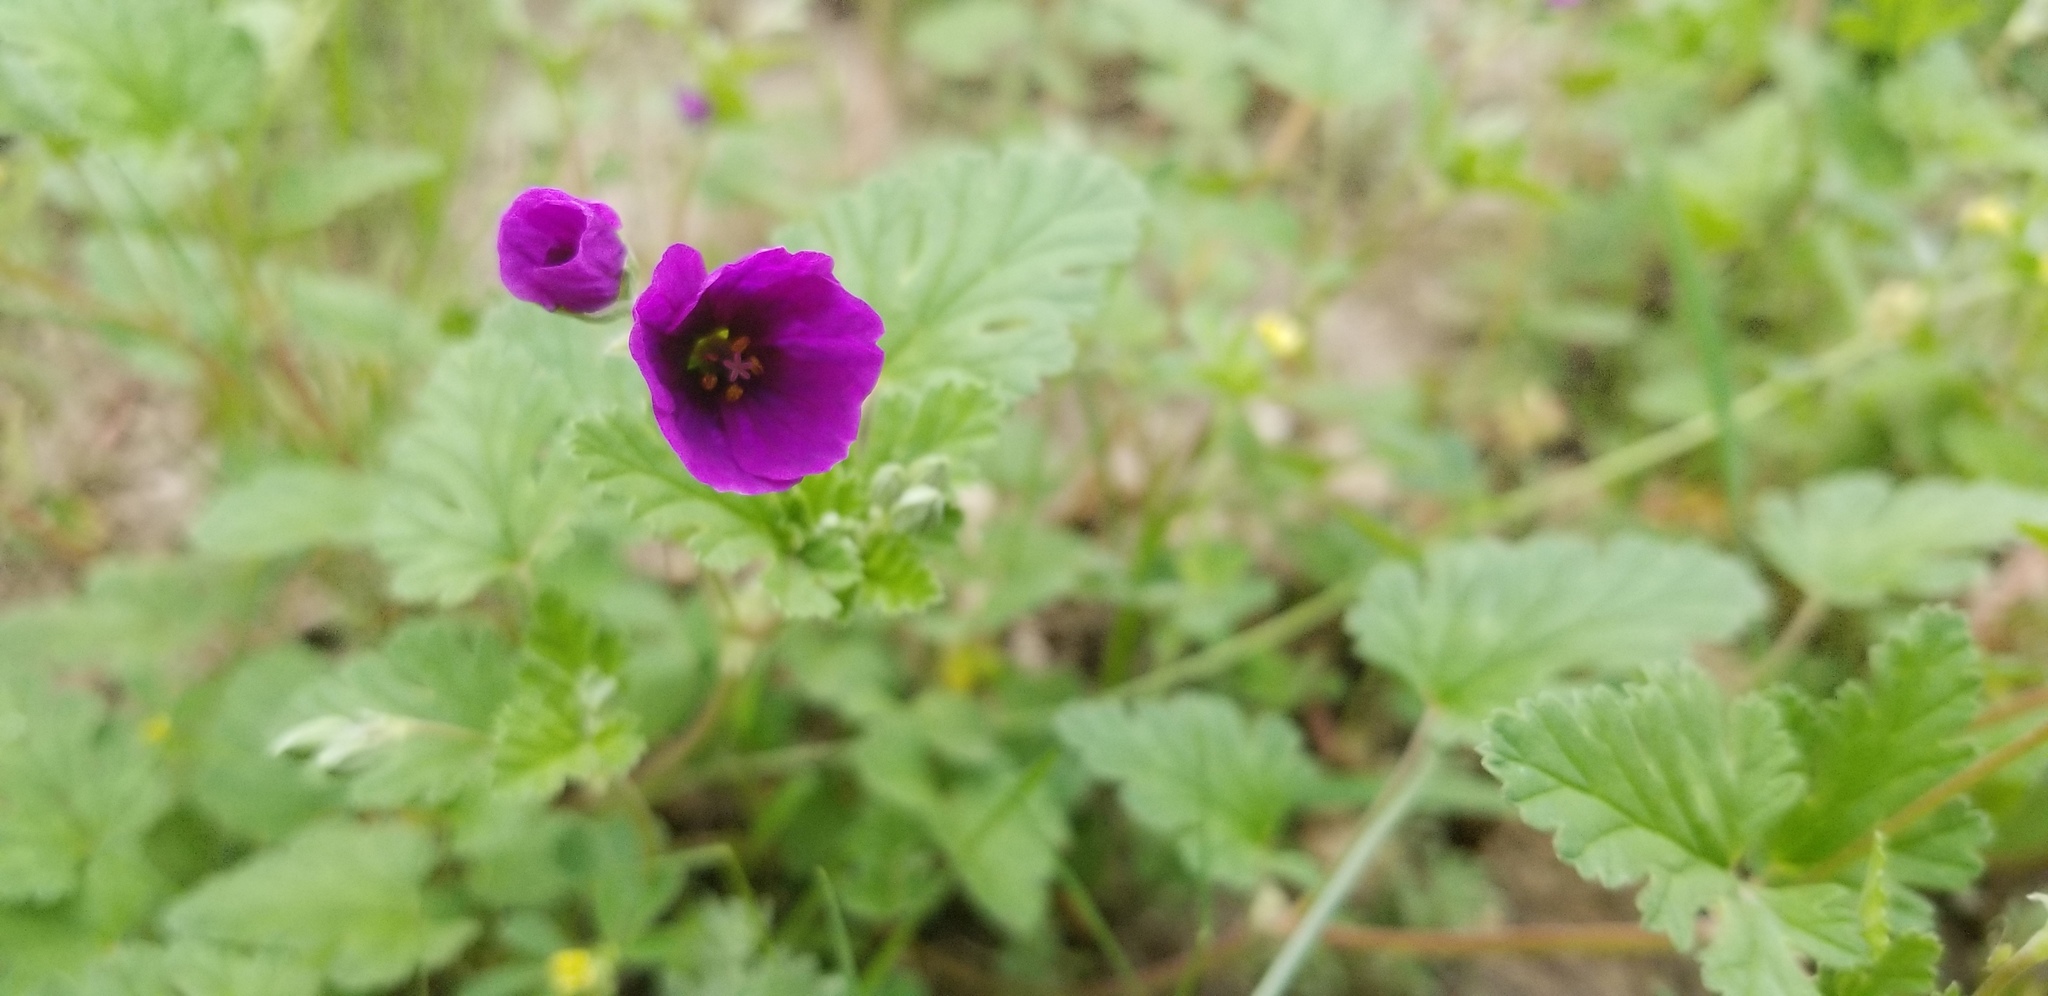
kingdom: Plantae
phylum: Tracheophyta
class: Magnoliopsida
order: Geraniales
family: Geraniaceae
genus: Erodium
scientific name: Erodium texanum
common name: Texas stork's-bill
